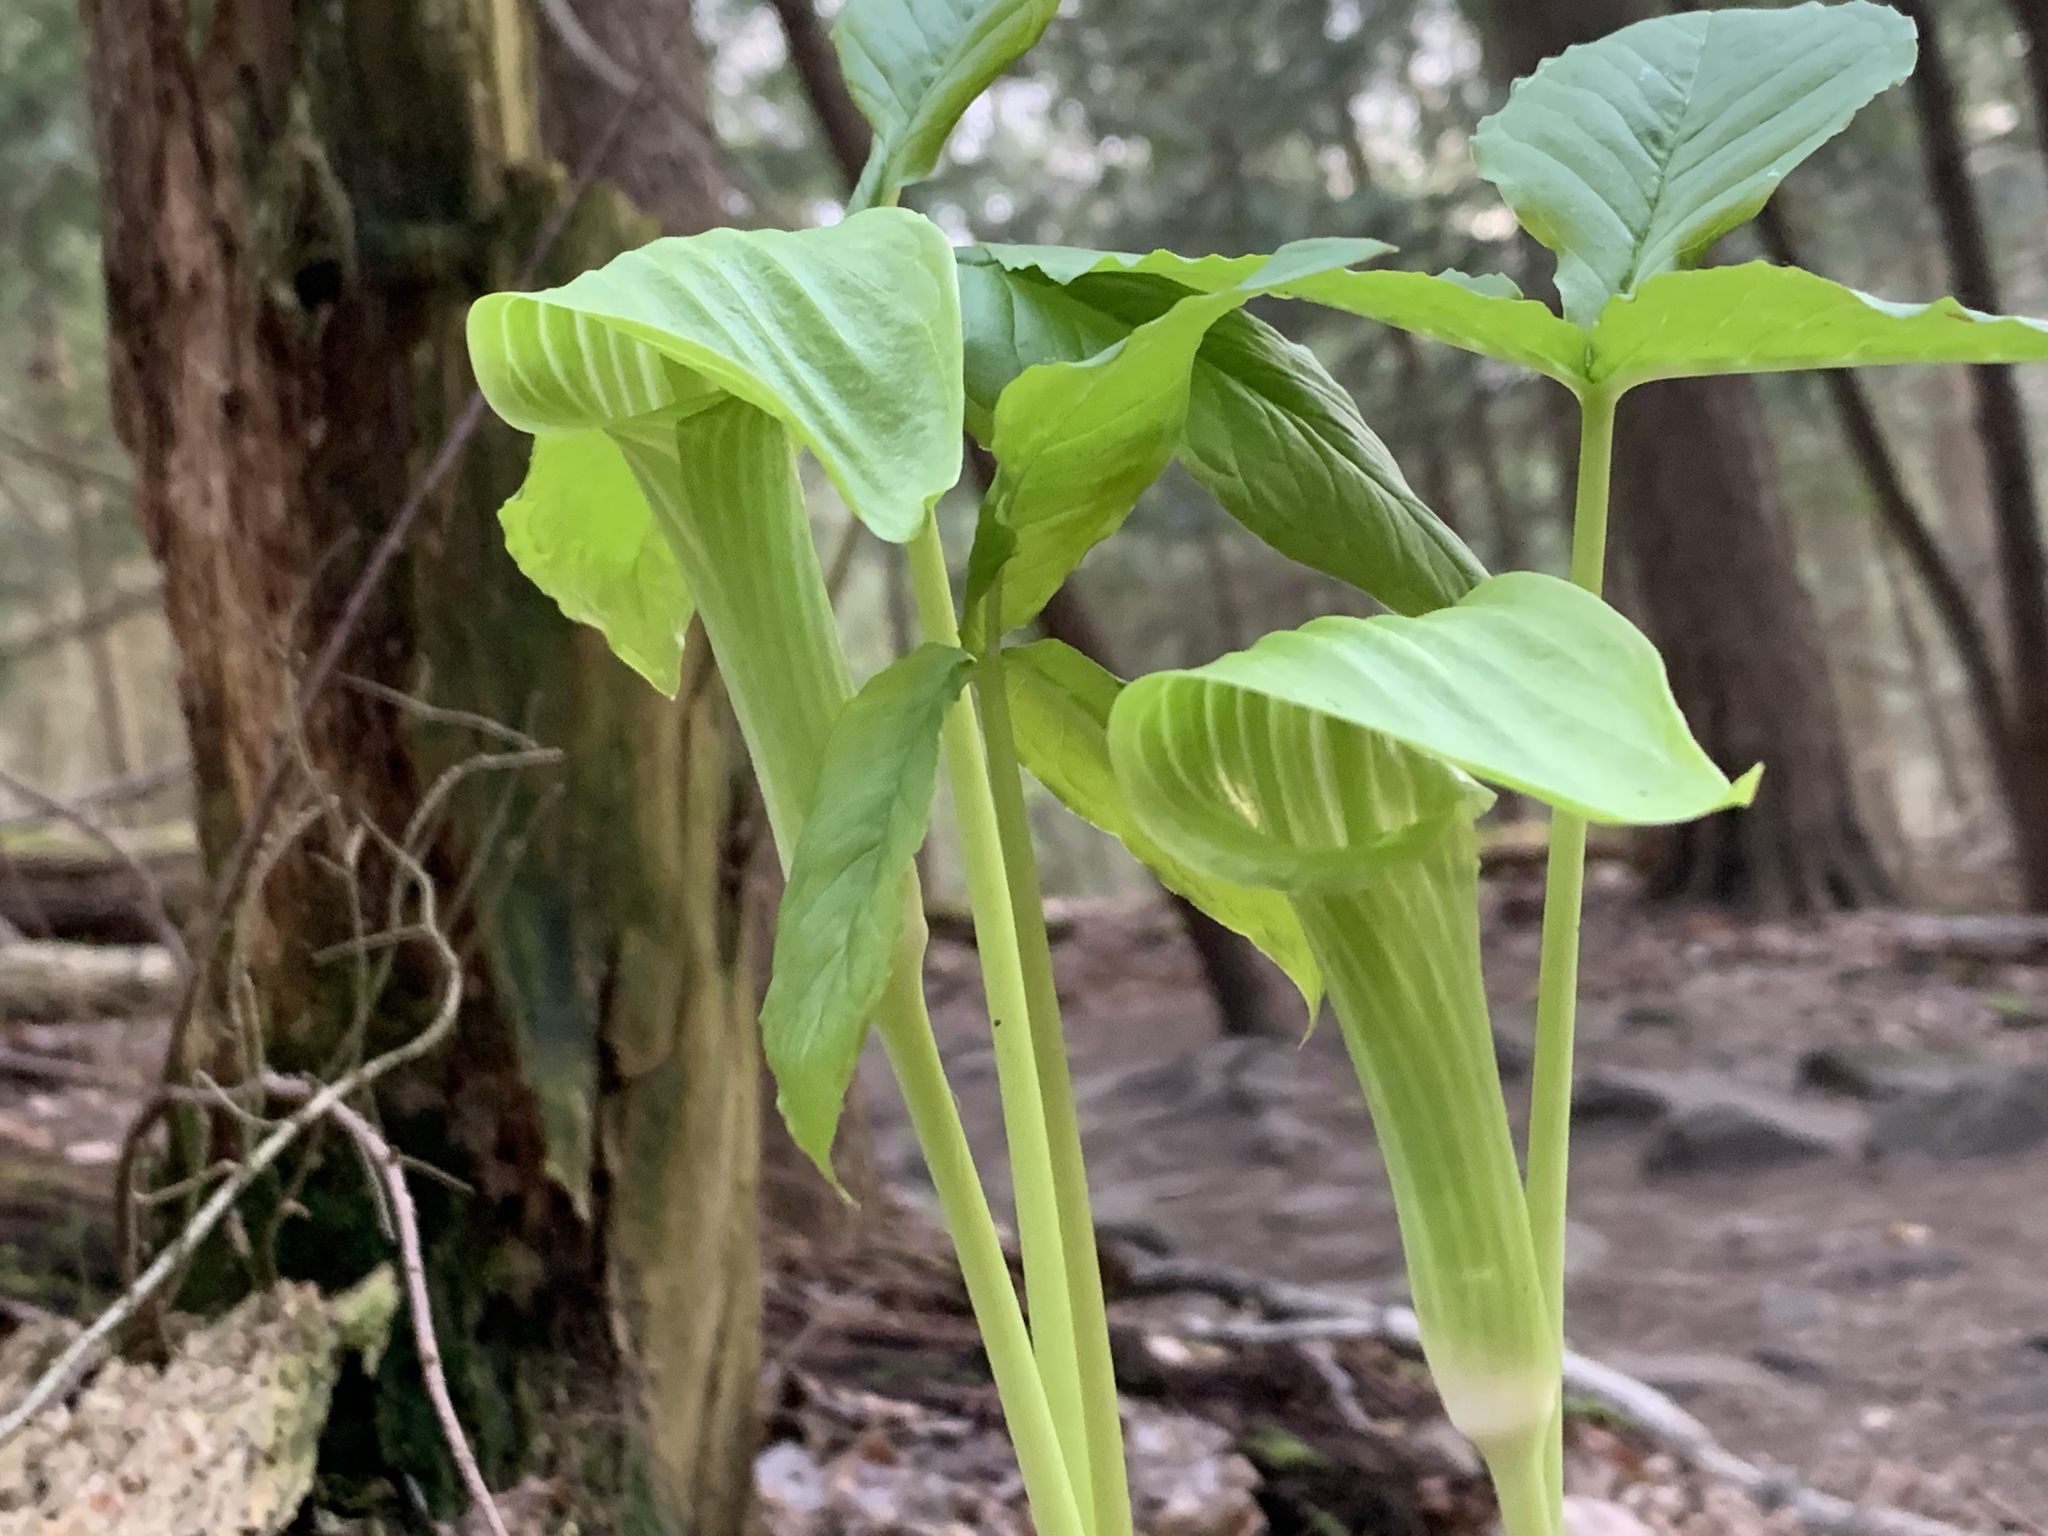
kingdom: Plantae
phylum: Tracheophyta
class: Liliopsida
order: Alismatales
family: Araceae
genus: Arisaema
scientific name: Arisaema triphyllum
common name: Jack-in-the-pulpit
